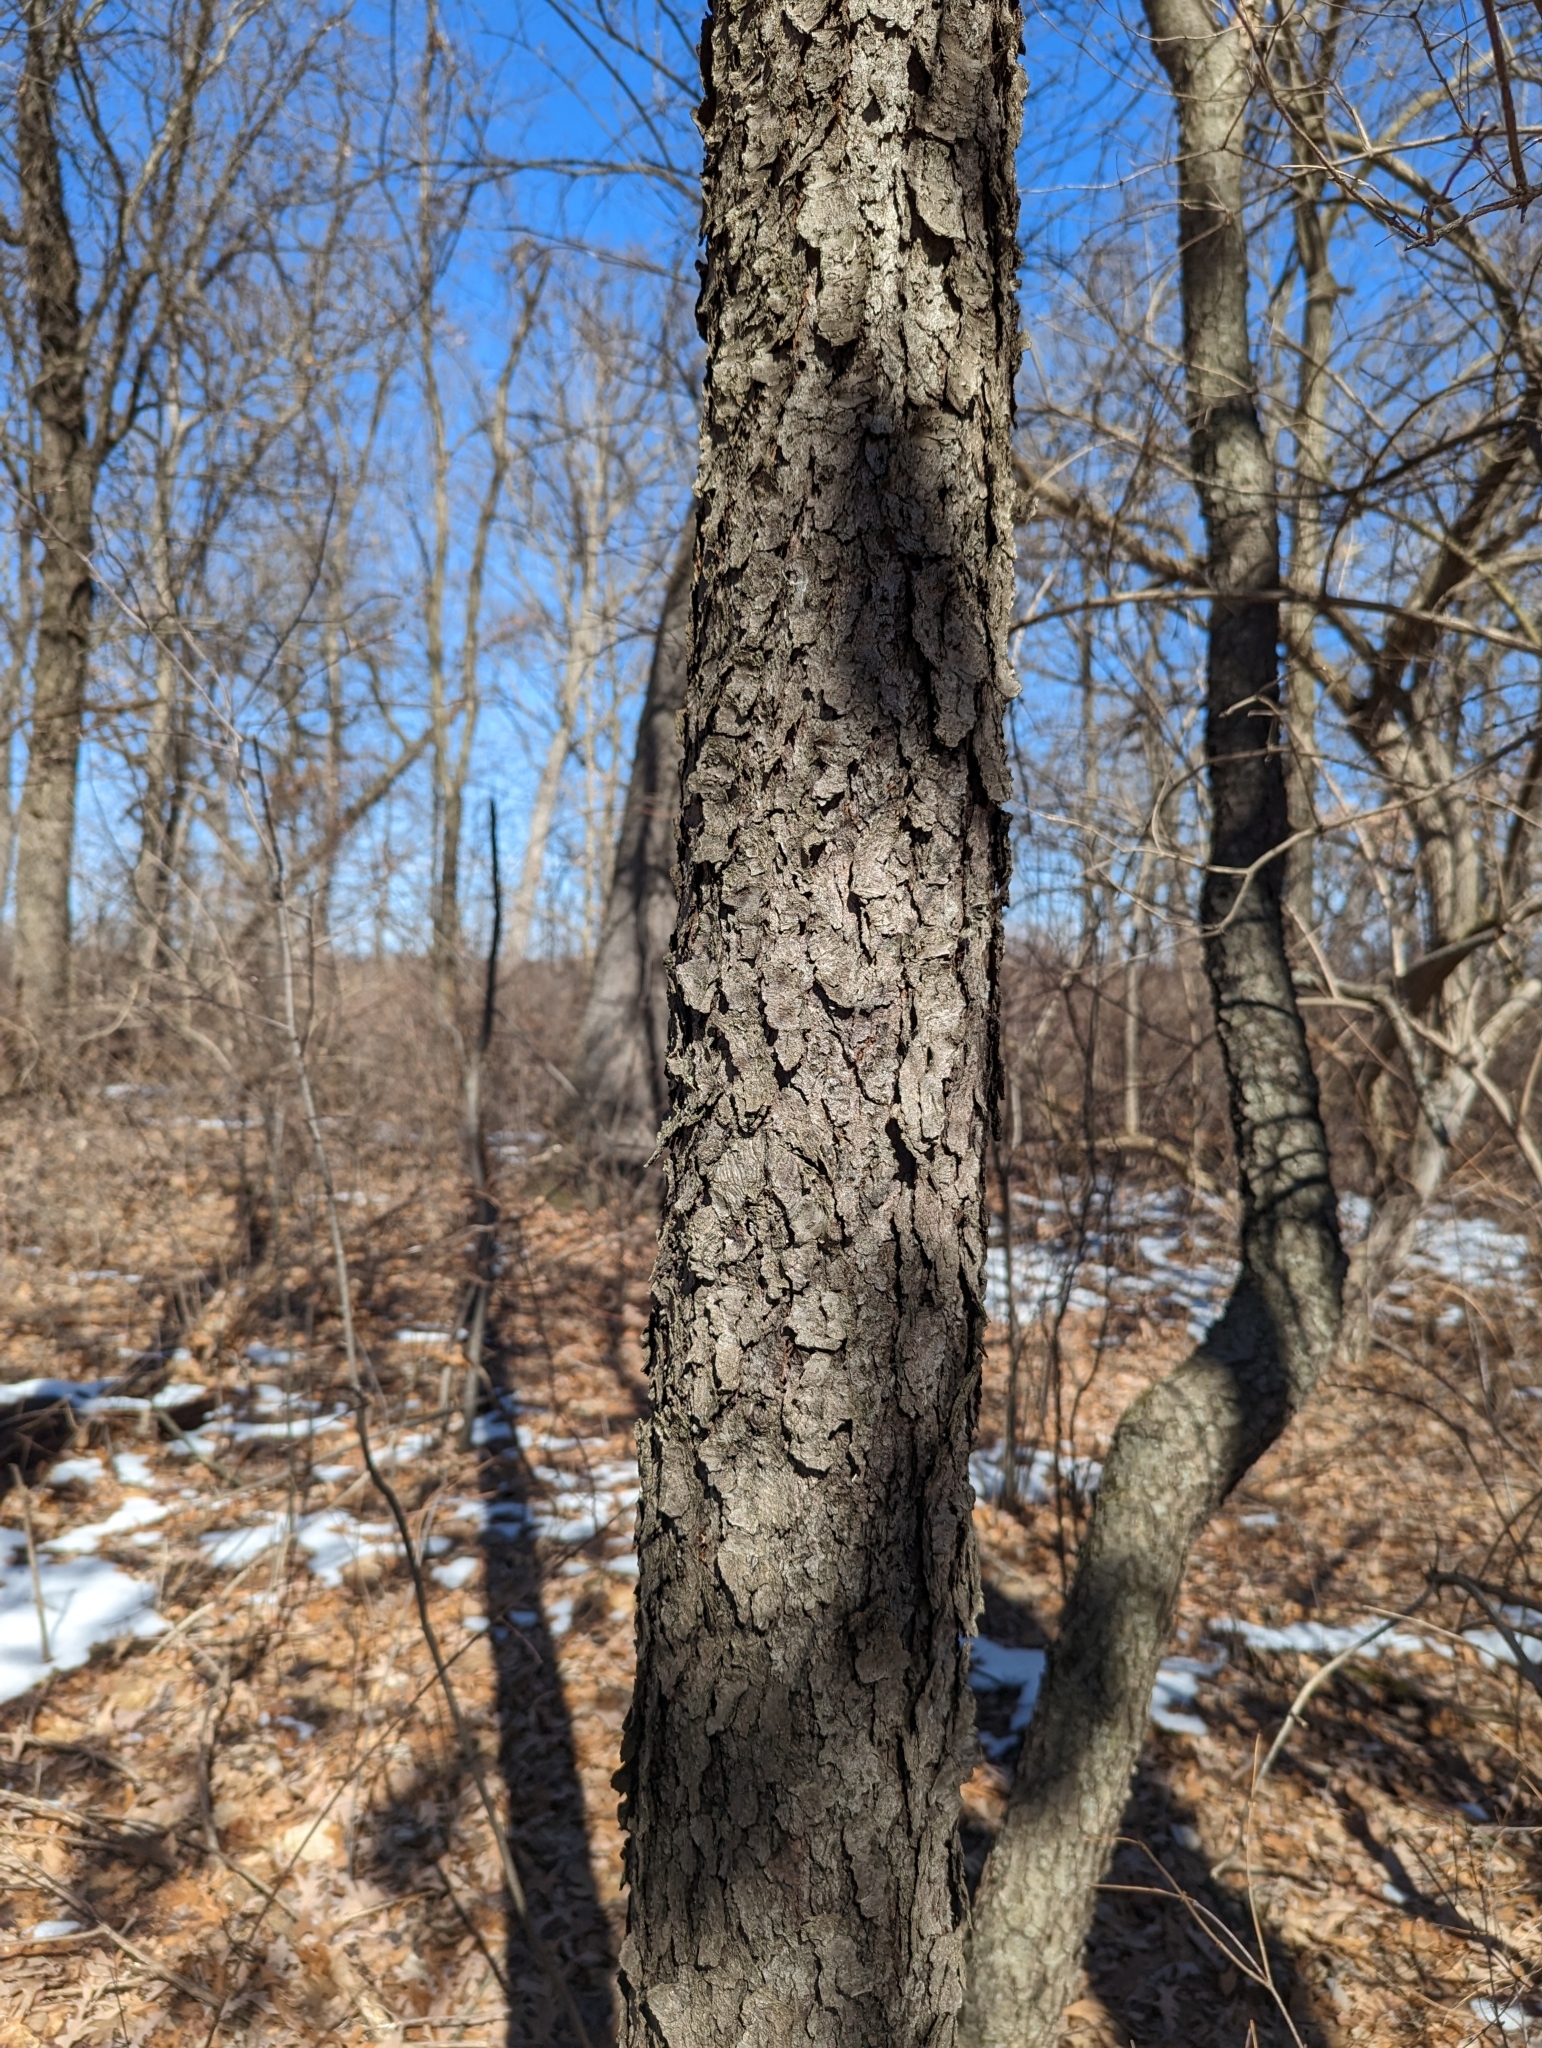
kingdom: Plantae
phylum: Tracheophyta
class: Magnoliopsida
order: Rosales
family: Rosaceae
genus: Prunus
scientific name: Prunus serotina
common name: Black cherry
